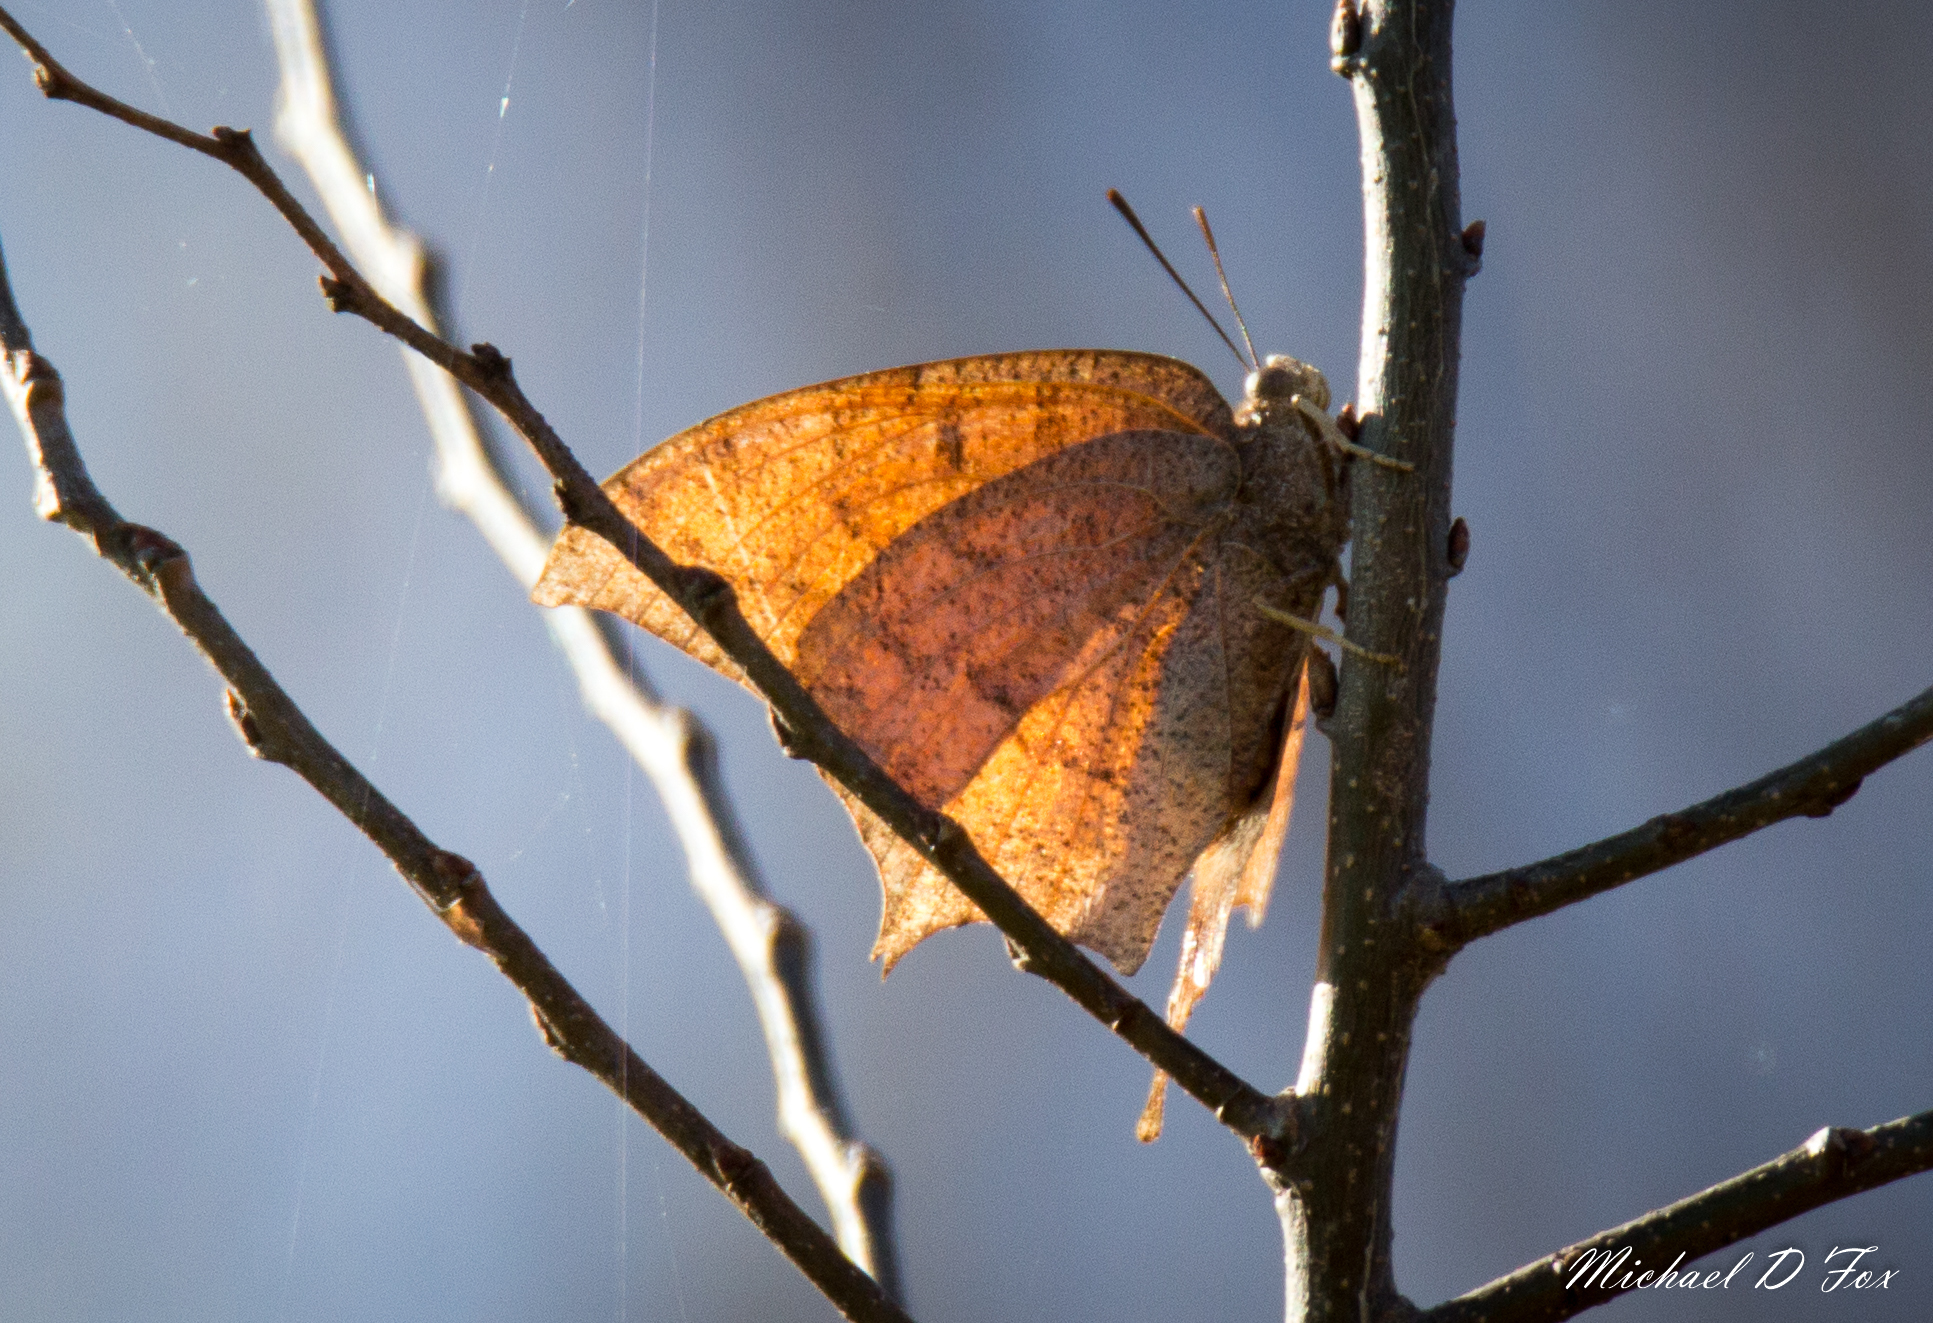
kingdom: Animalia
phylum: Arthropoda
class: Insecta
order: Lepidoptera
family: Nymphalidae
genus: Anaea
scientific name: Anaea andria
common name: Goatweed leafwing
